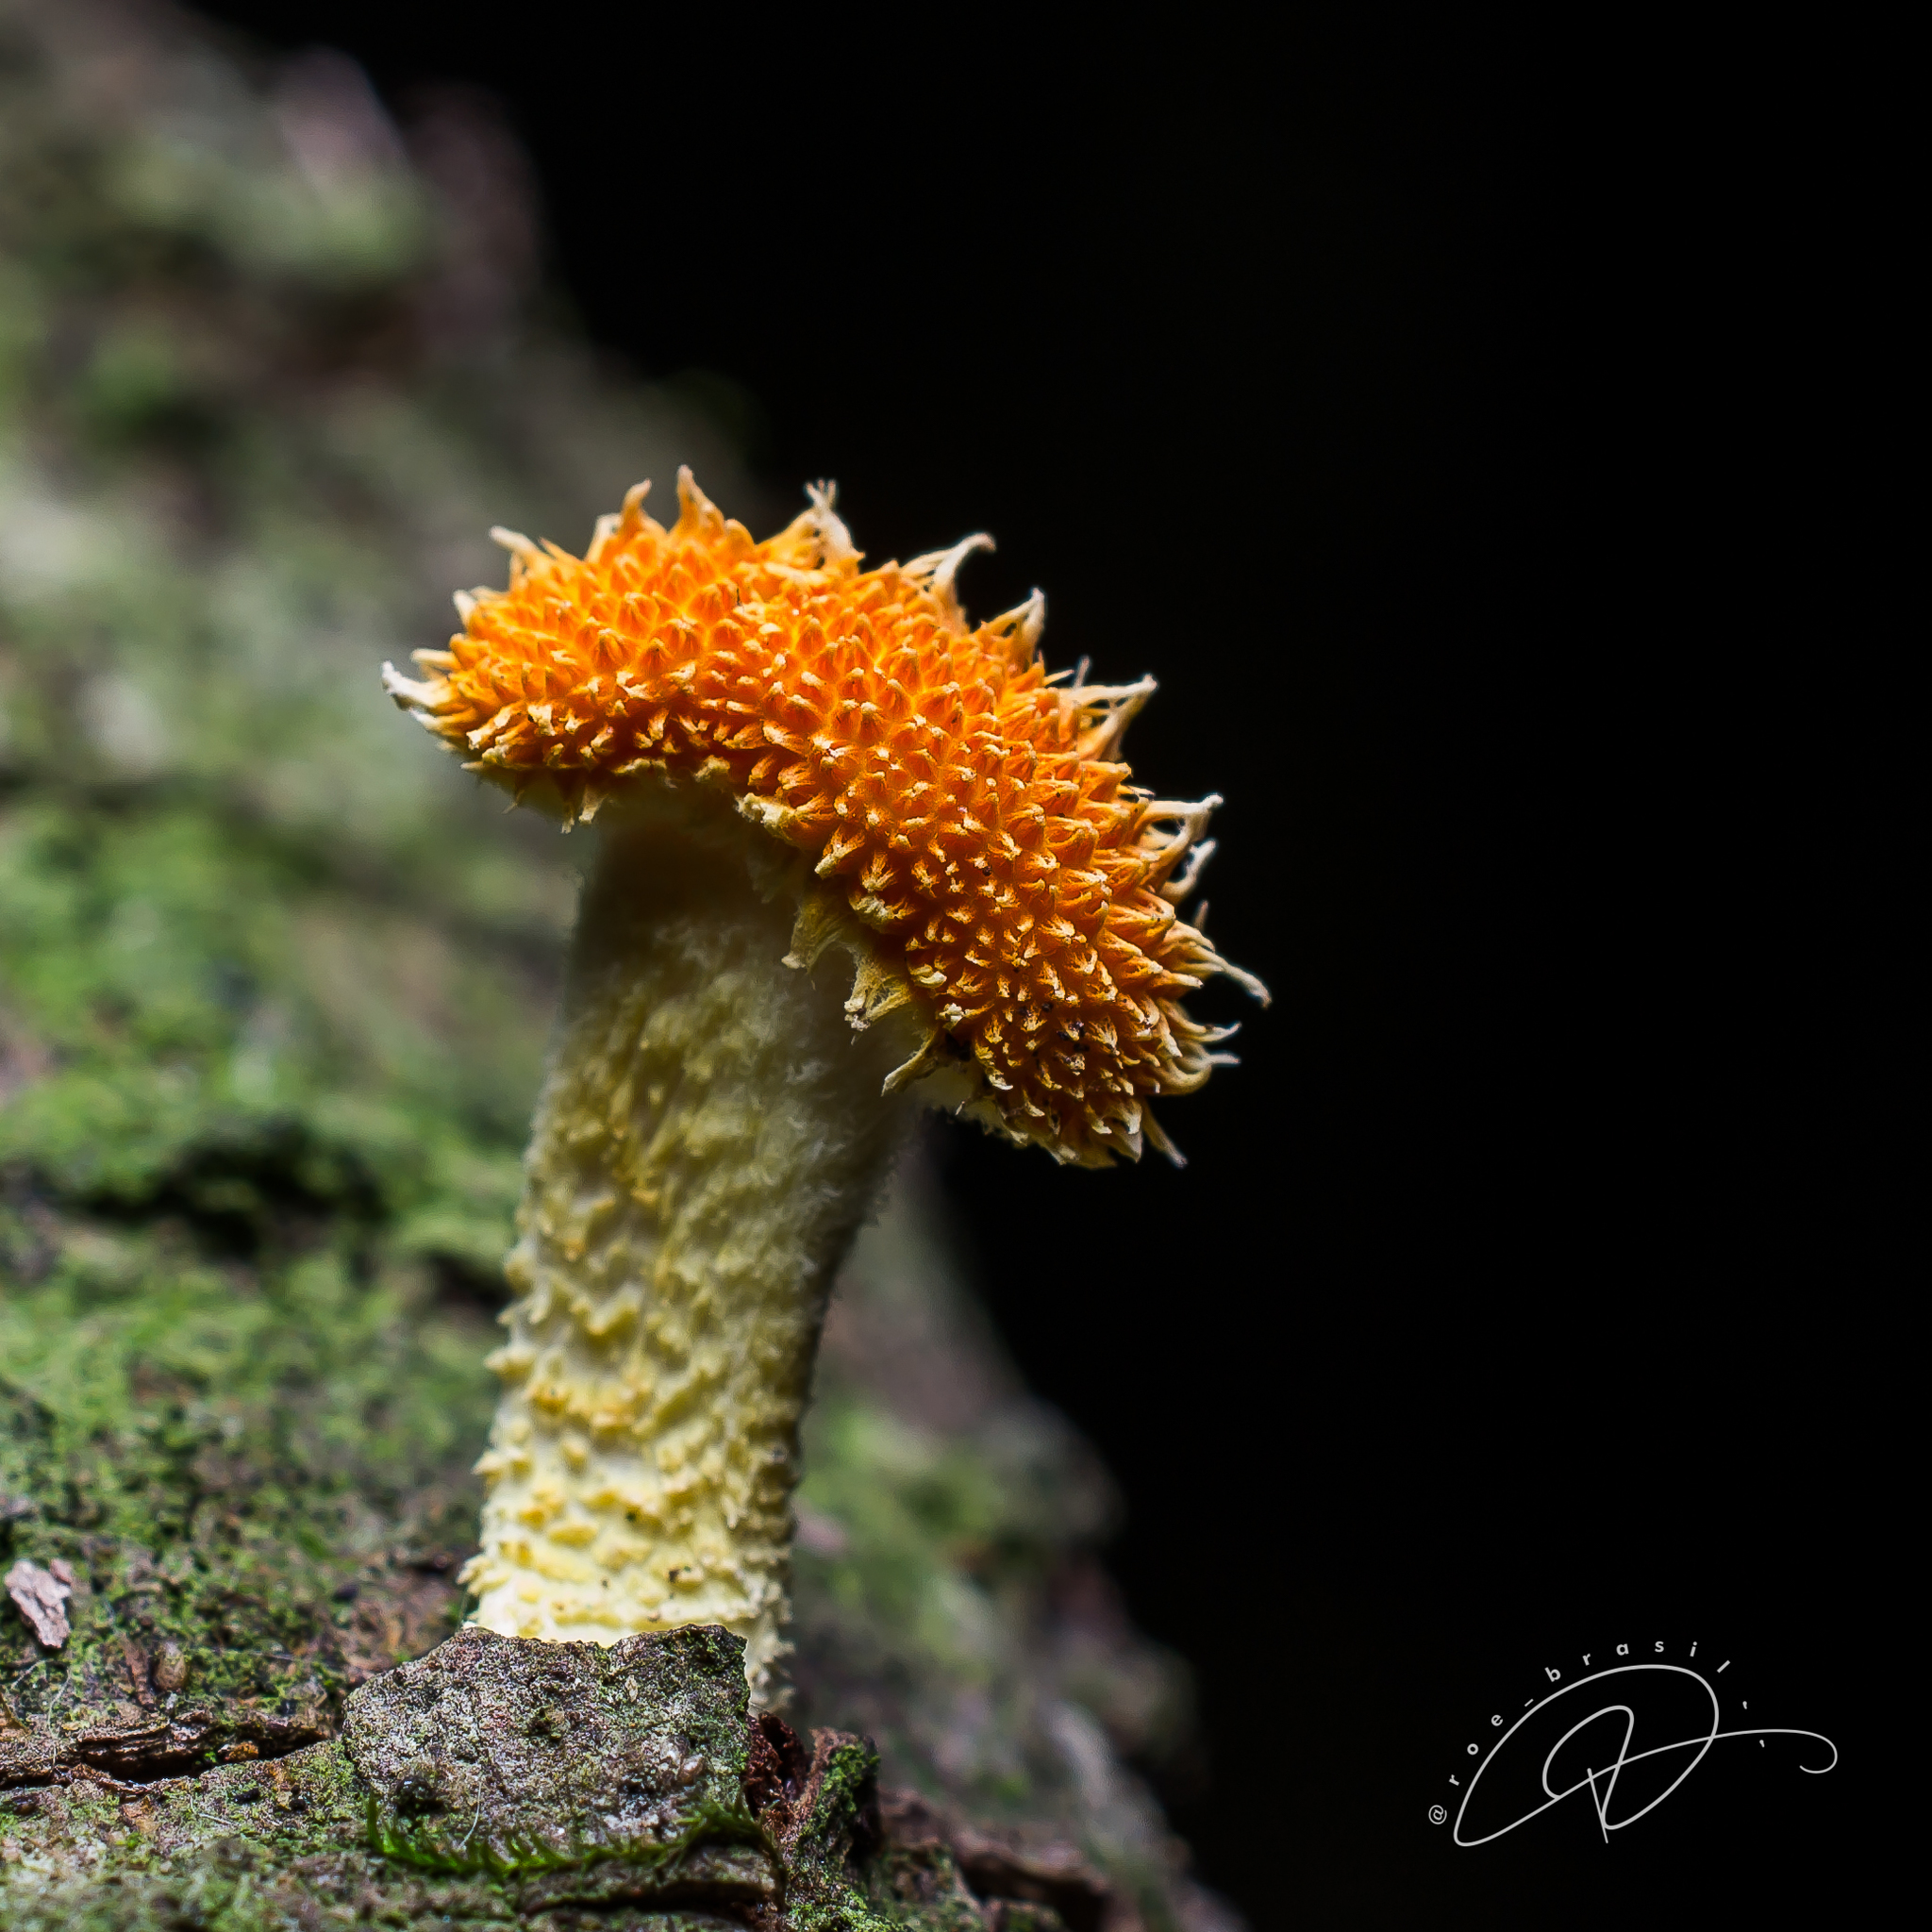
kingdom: Fungi
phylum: Basidiomycota
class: Agaricomycetes
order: Agaricales
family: Physalacriaceae
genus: Cyptotrama
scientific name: Cyptotrama asprata
